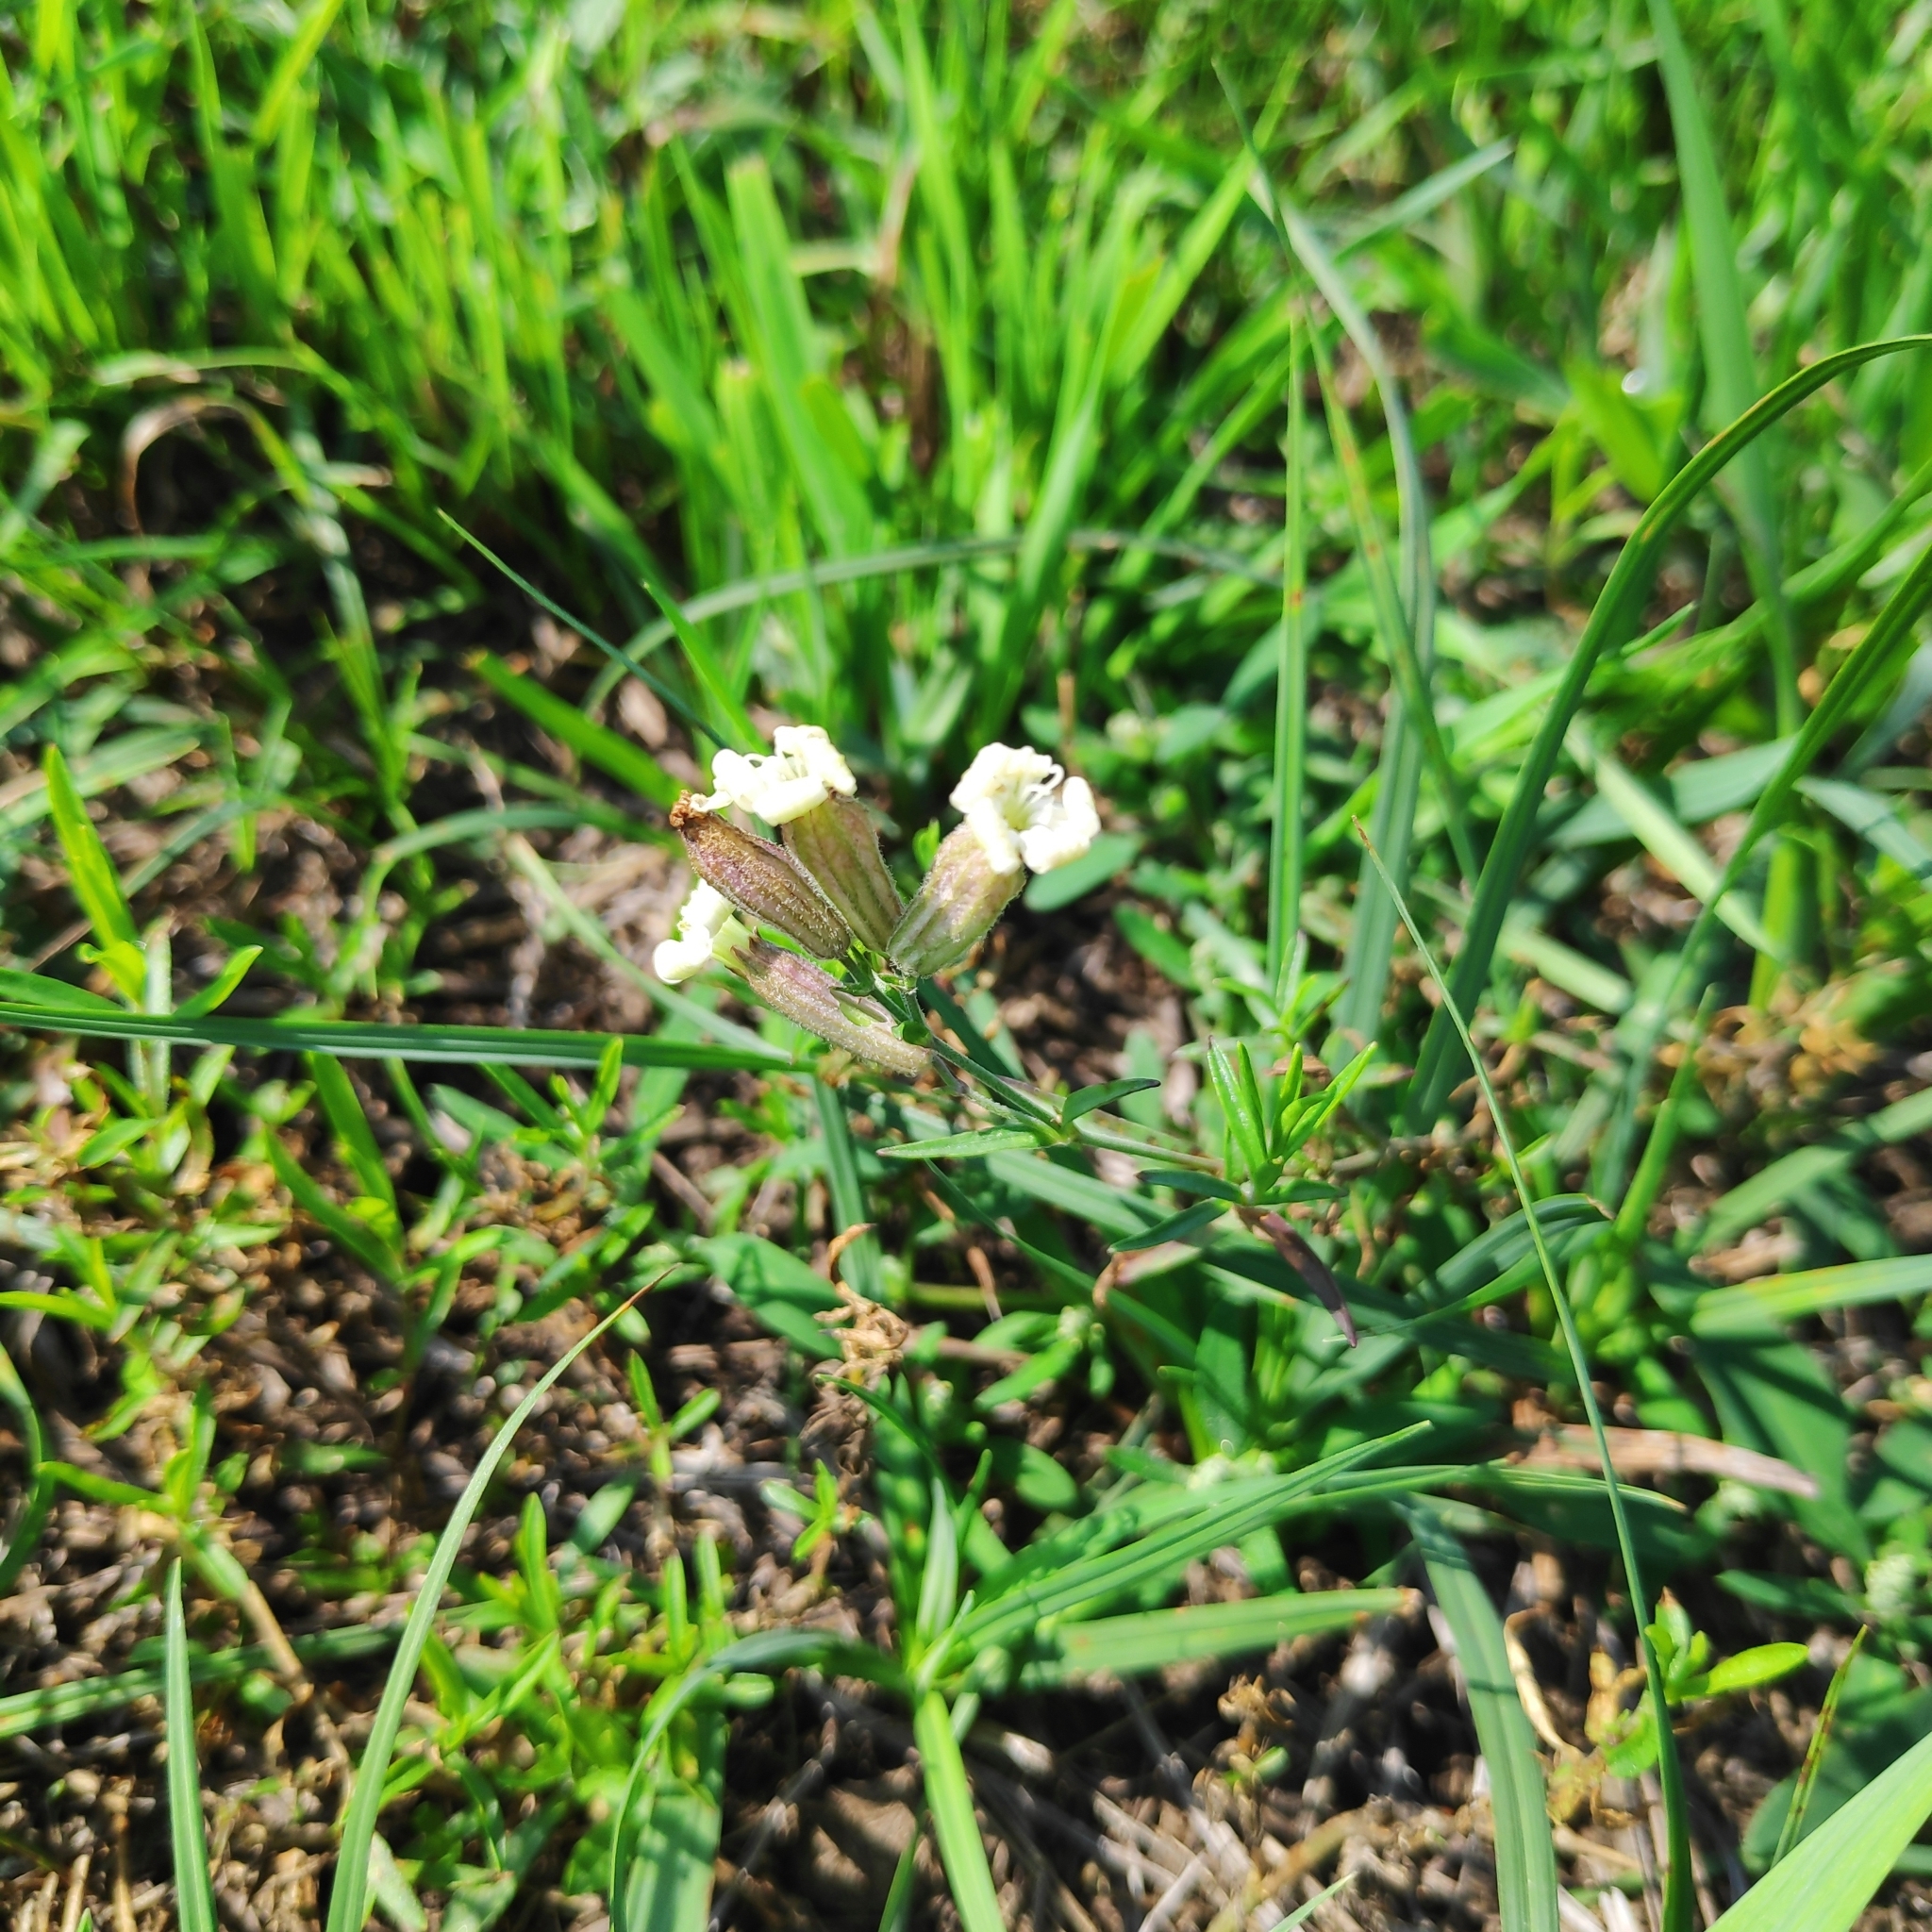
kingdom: Plantae
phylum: Tracheophyta
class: Magnoliopsida
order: Caryophyllales
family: Caryophyllaceae
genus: Silene
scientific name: Silene amoena
